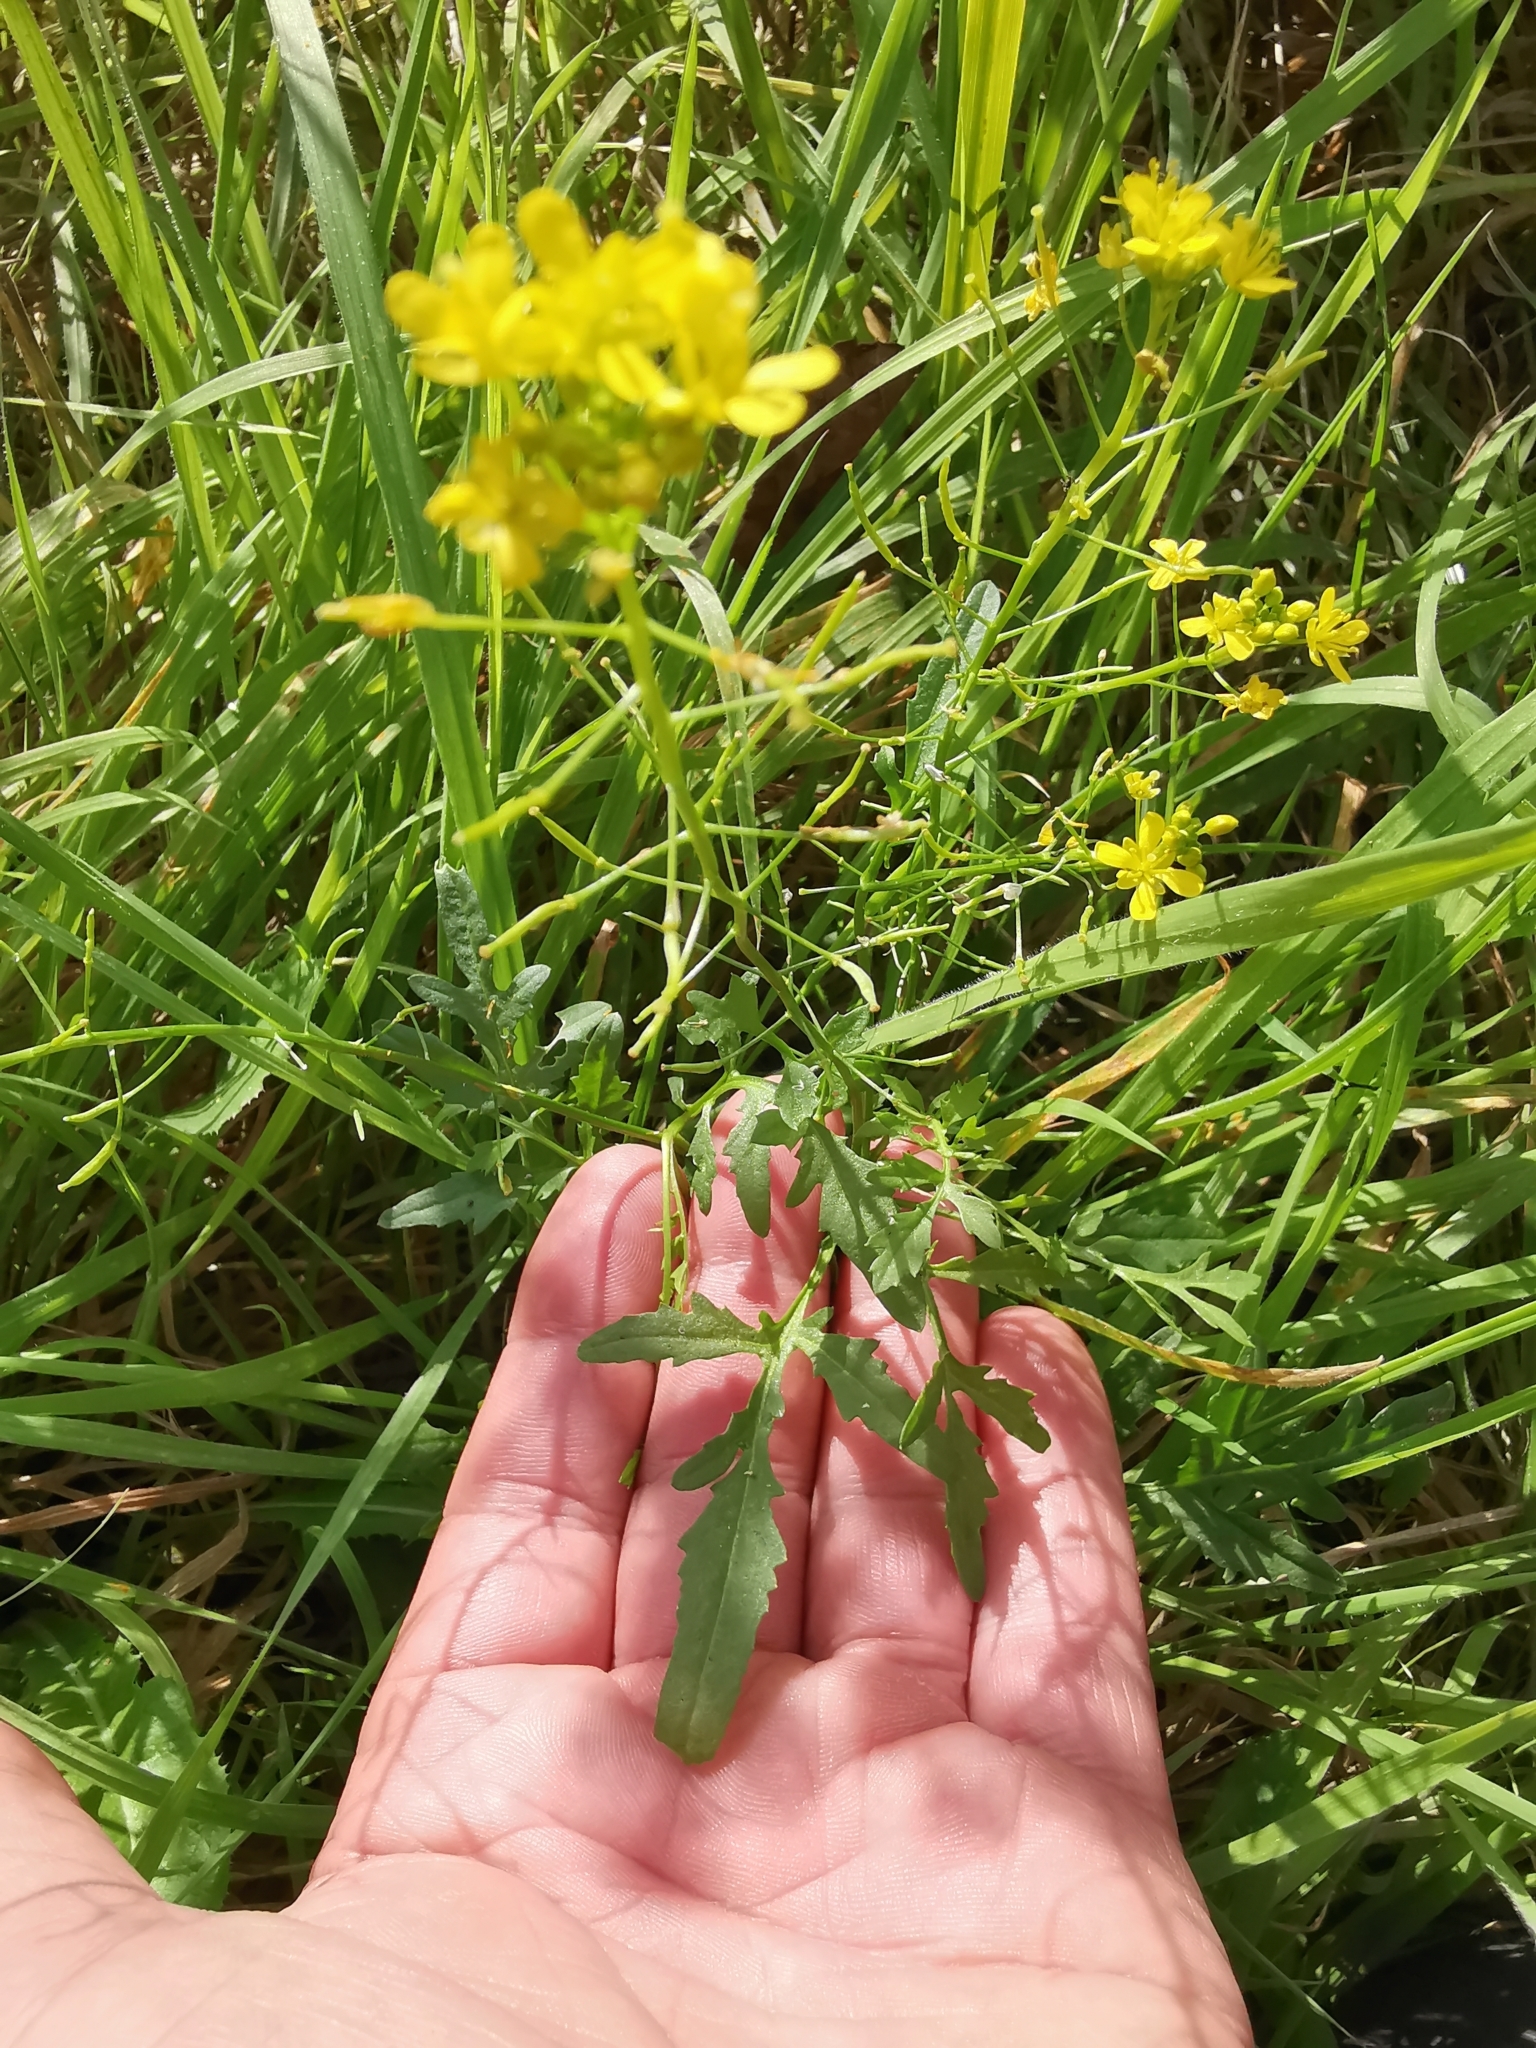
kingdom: Plantae
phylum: Tracheophyta
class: Magnoliopsida
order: Brassicales
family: Brassicaceae
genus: Rorippa
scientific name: Rorippa sylvestris
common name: Creeping yellowcress
